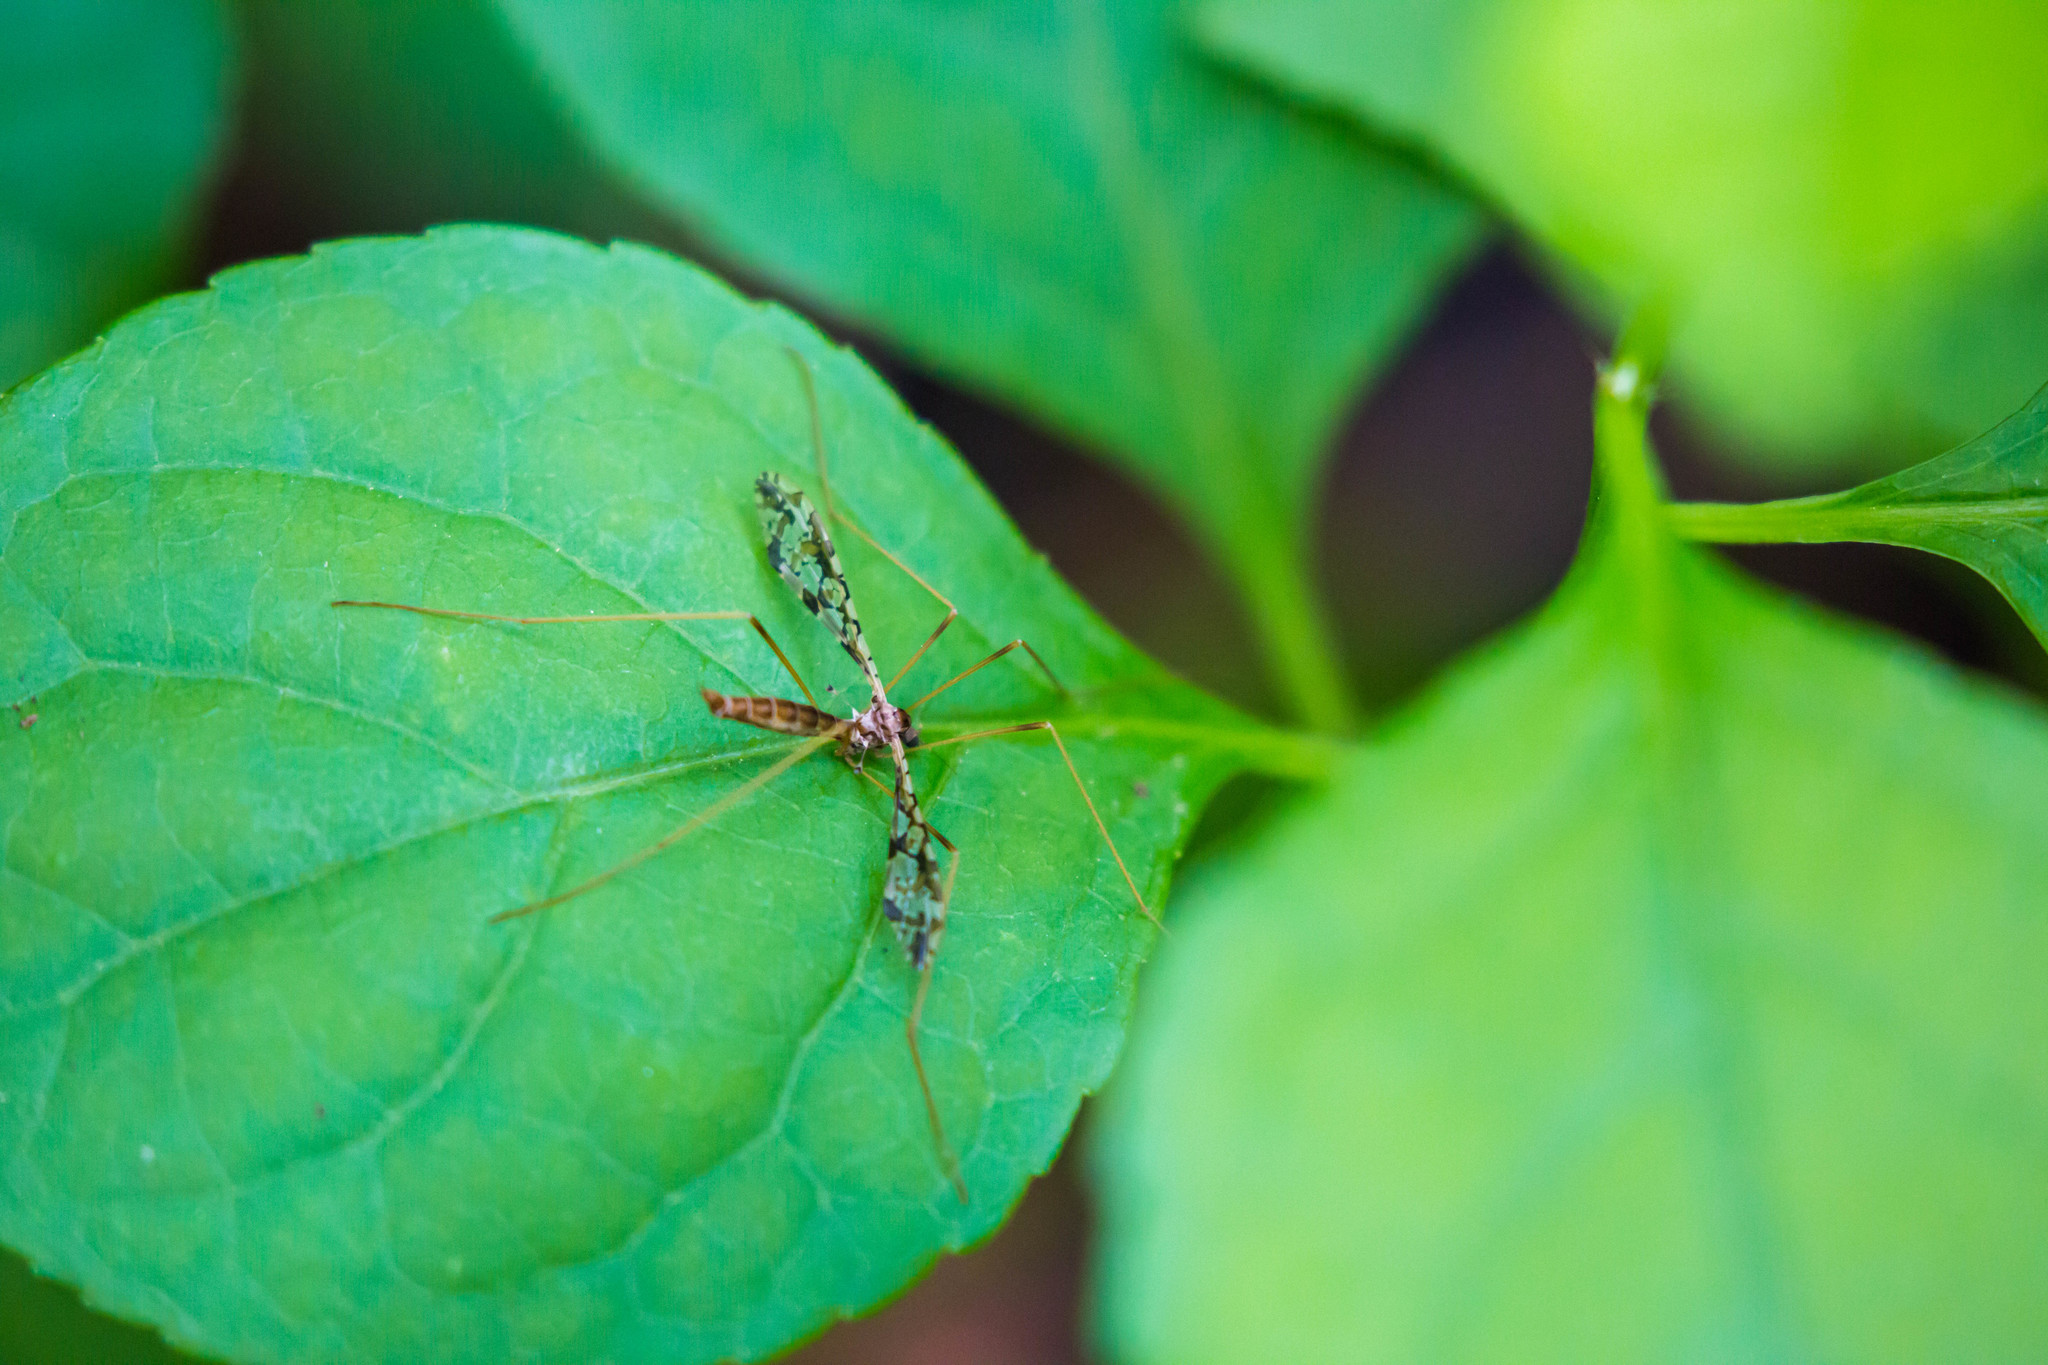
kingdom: Animalia
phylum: Arthropoda
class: Insecta
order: Diptera
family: Limoniidae
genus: Epiphragma
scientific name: Epiphragma solatrix
